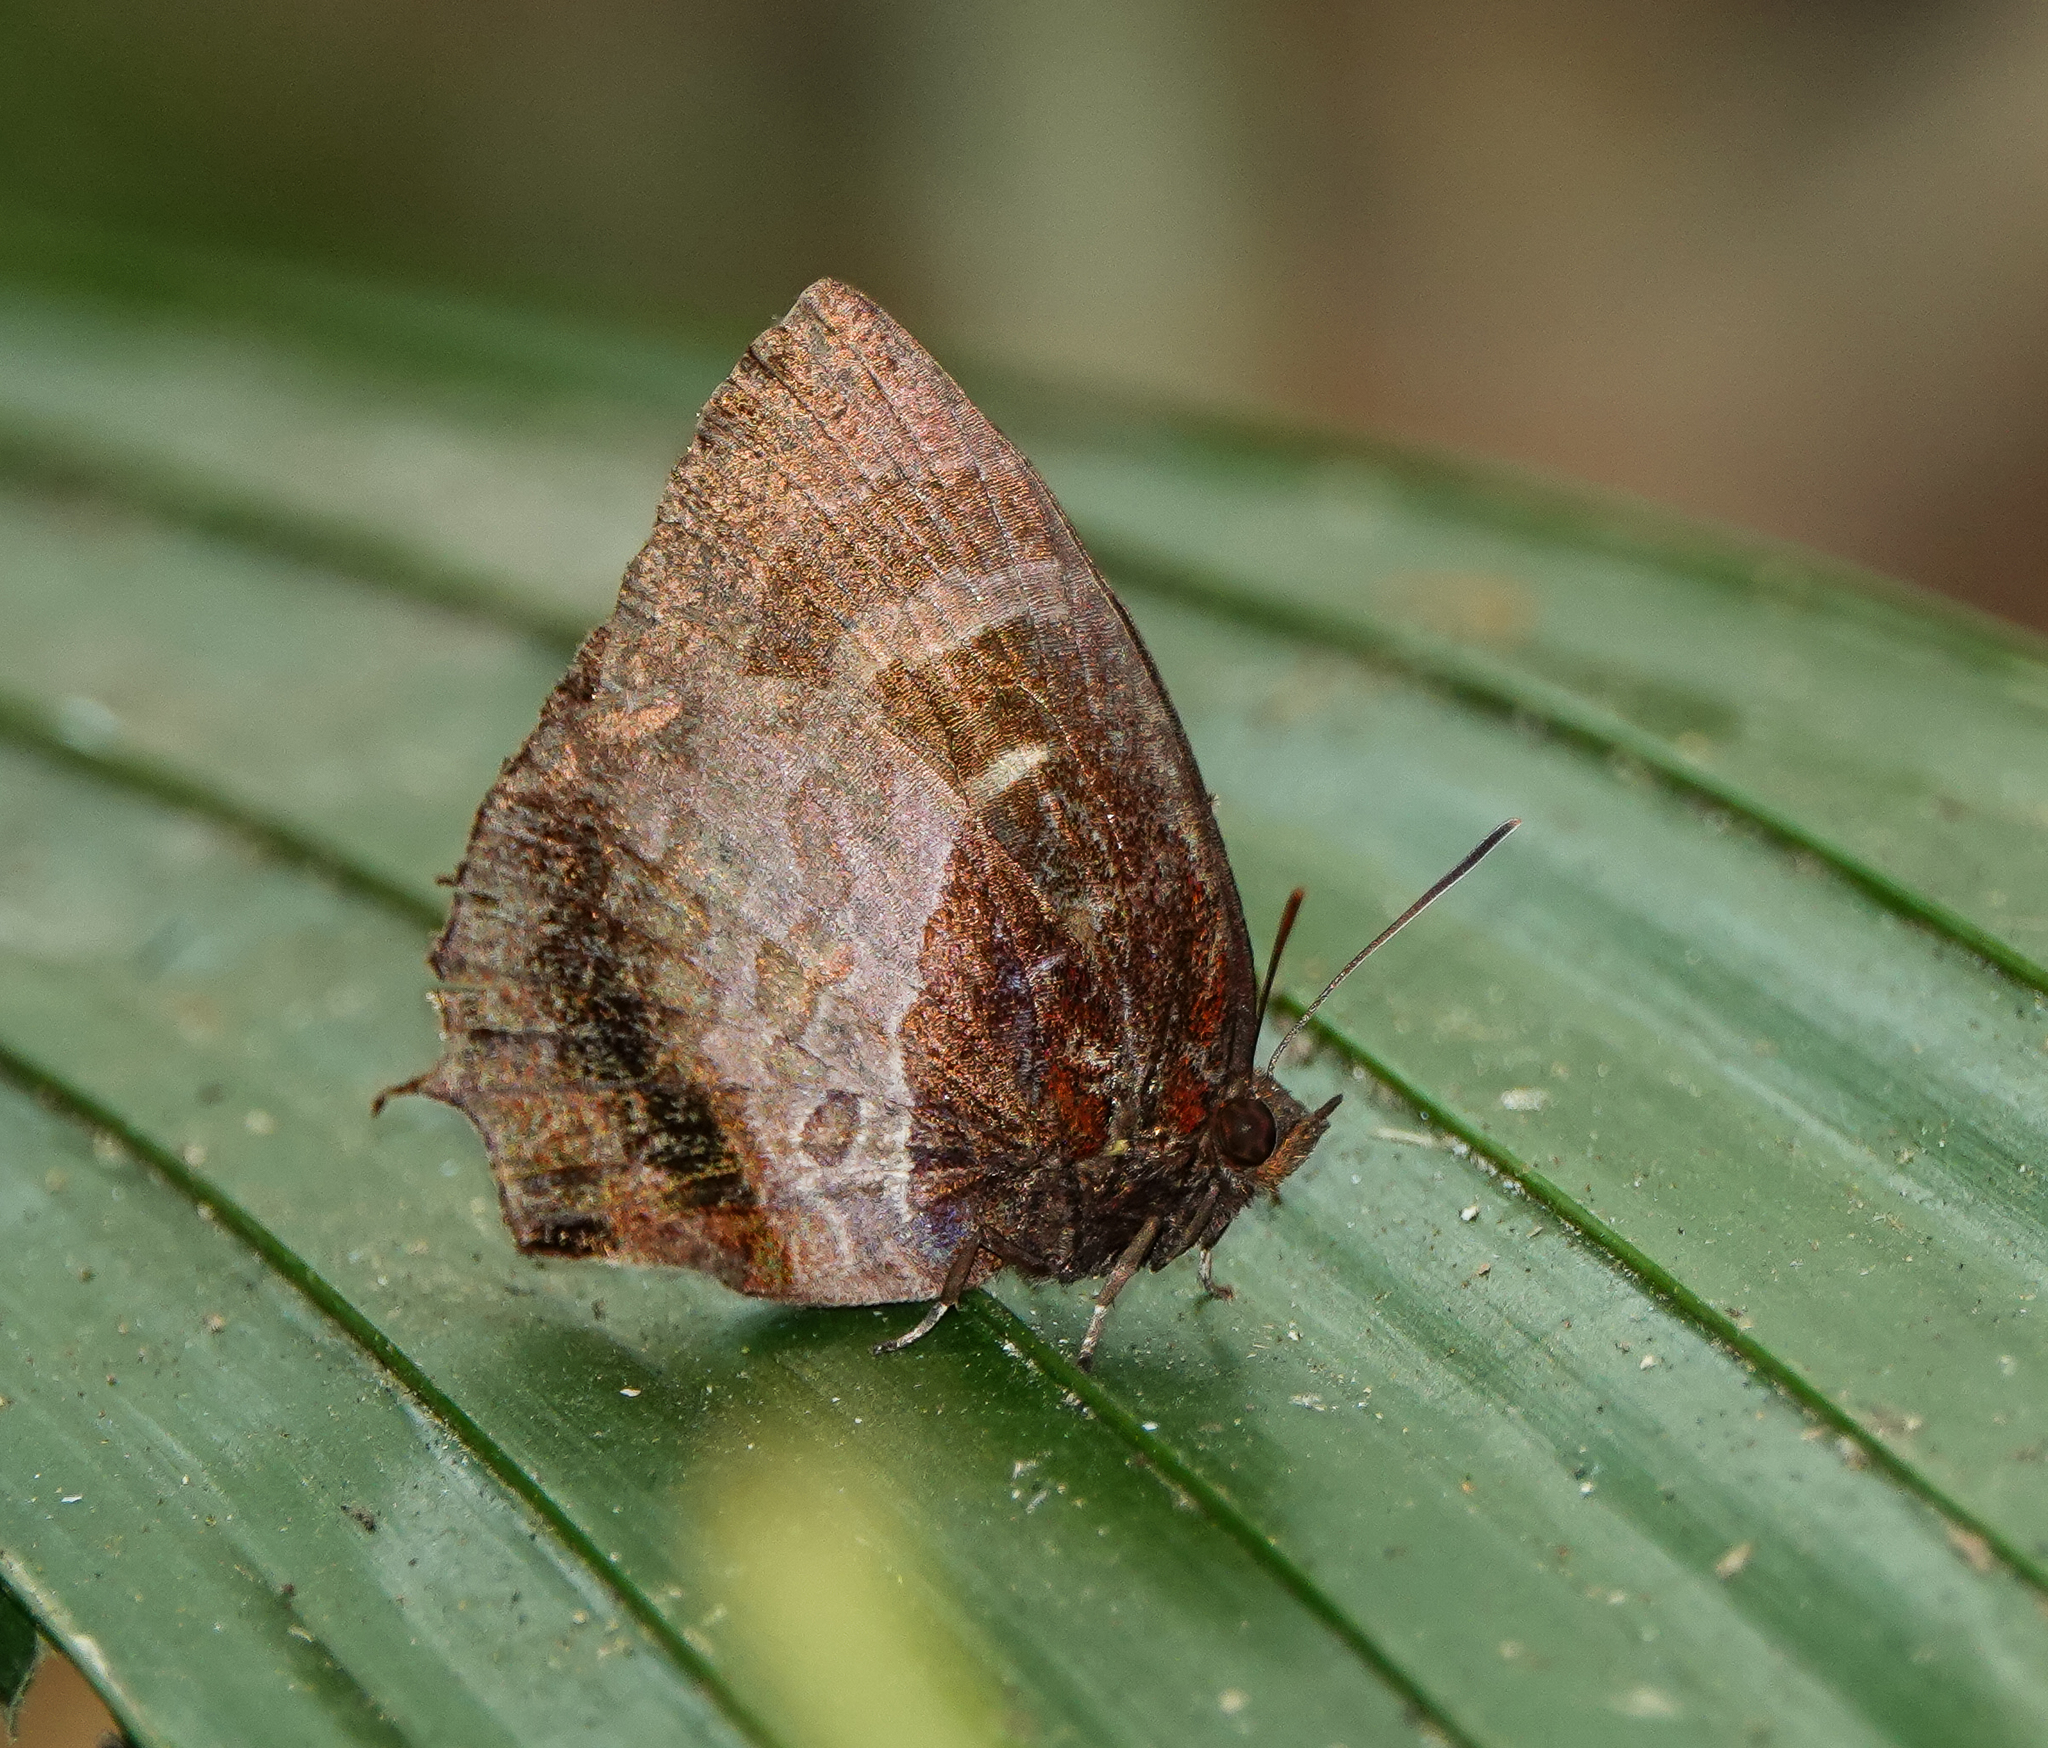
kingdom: Animalia
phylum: Arthropoda
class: Insecta
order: Lepidoptera
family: Lycaenidae
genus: Flos
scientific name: Flos apidanus
